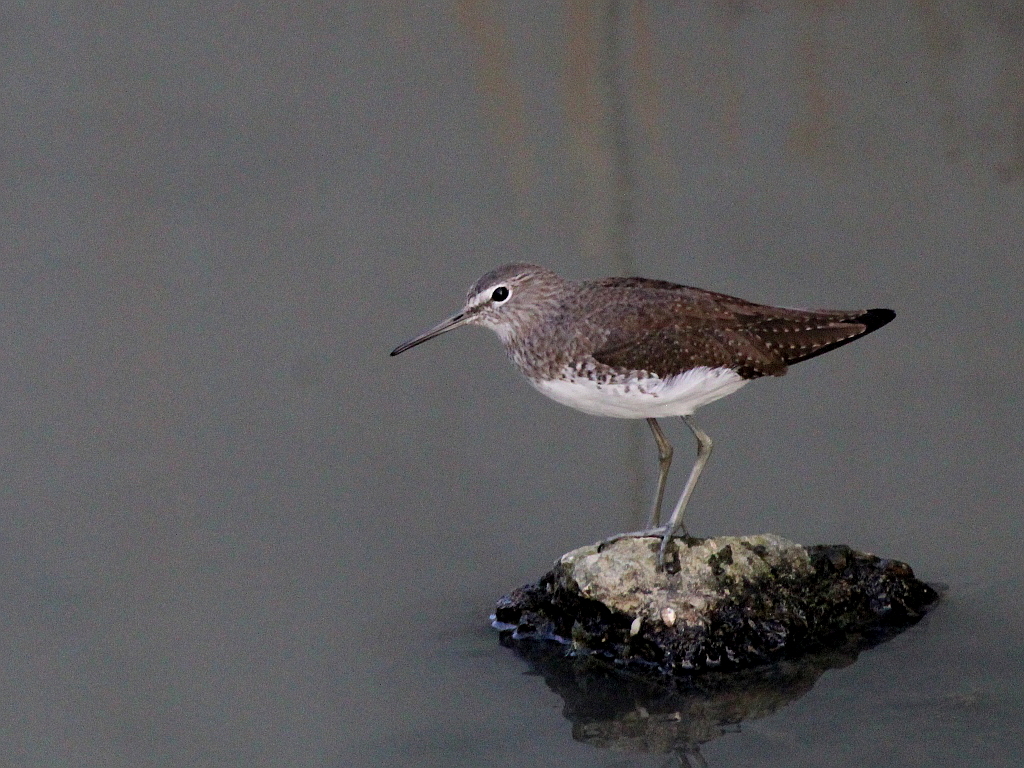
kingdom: Animalia
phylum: Chordata
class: Aves
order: Charadriiformes
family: Scolopacidae
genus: Tringa
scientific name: Tringa ochropus
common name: Green sandpiper
